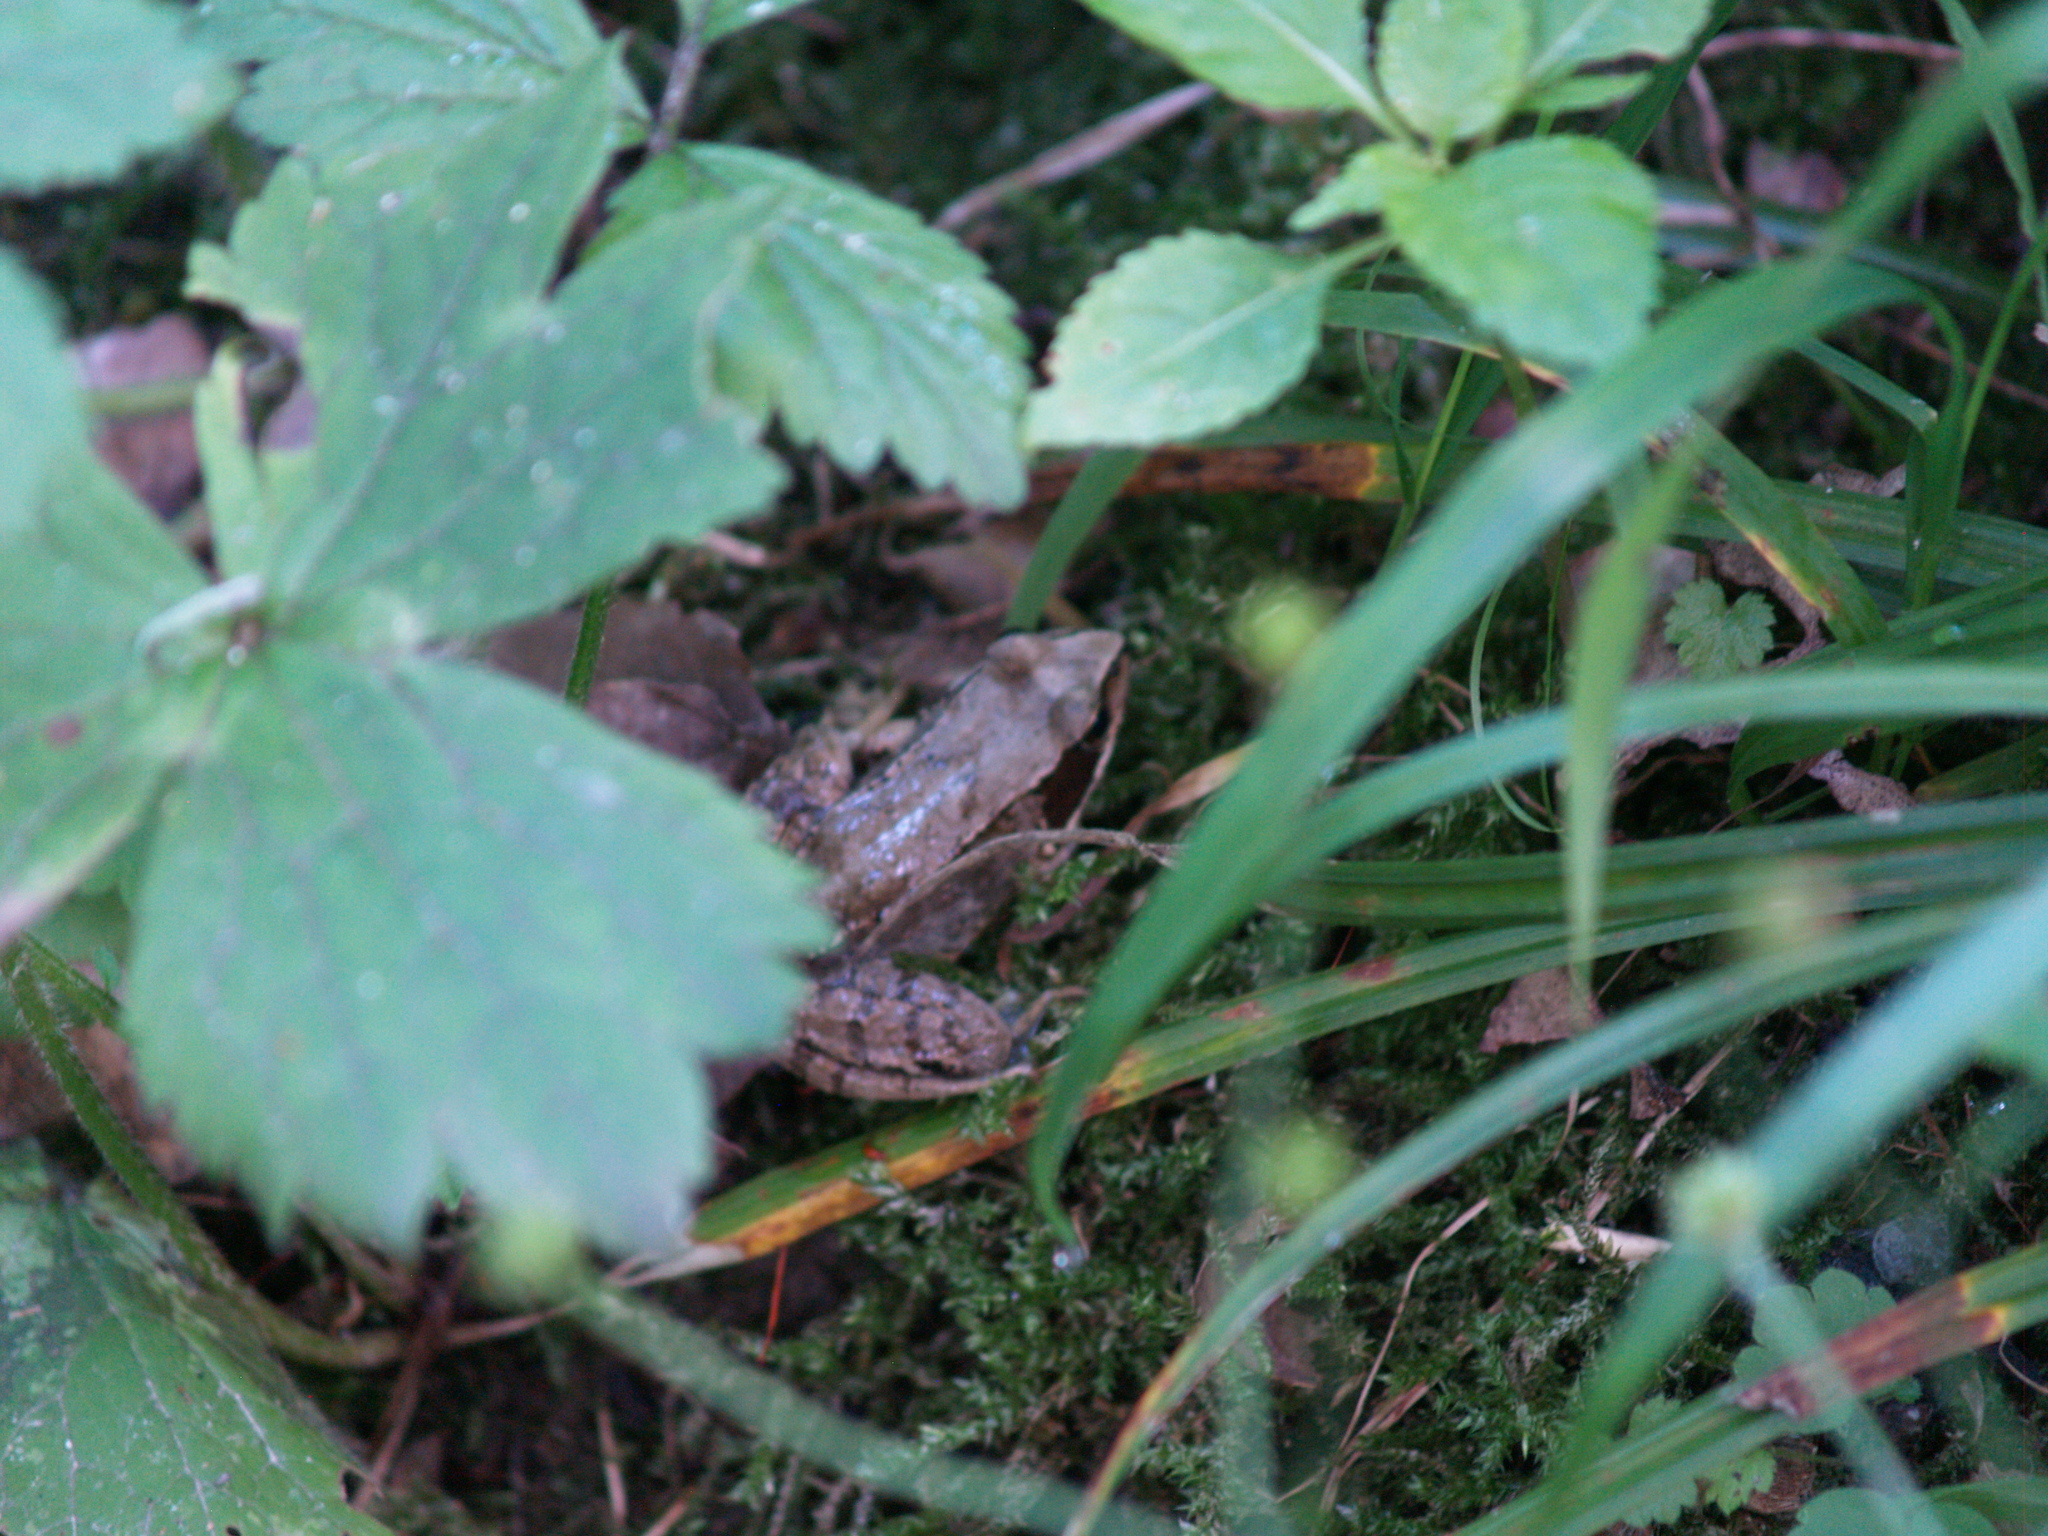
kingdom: Animalia
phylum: Chordata
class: Amphibia
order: Anura
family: Ranidae
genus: Rana
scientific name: Rana temporaria
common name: Common frog
